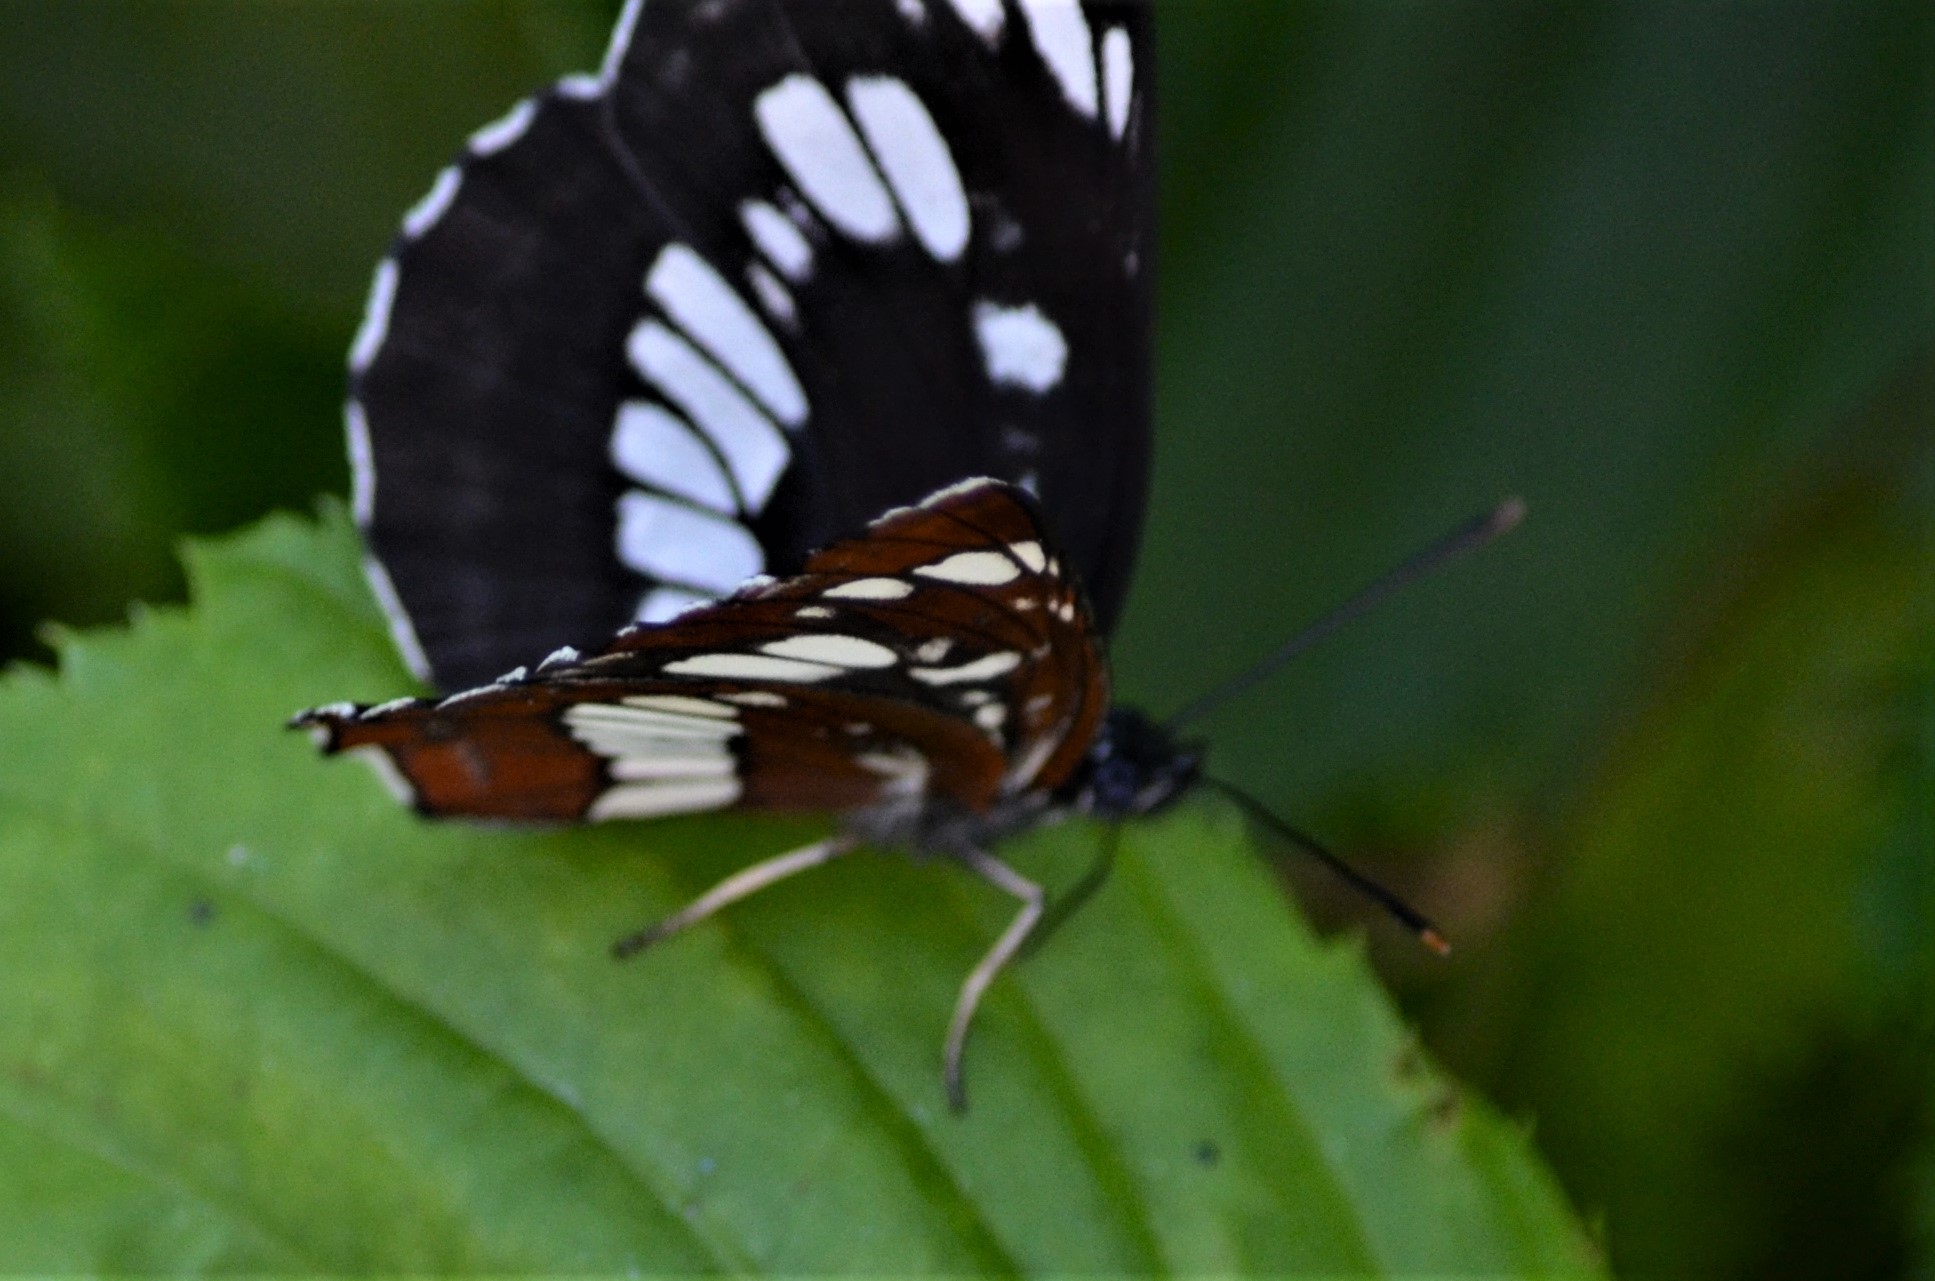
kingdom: Animalia
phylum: Arthropoda
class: Insecta
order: Lepidoptera
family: Nymphalidae
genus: Neptis
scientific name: Neptis rivularis
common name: Hungarian glider
